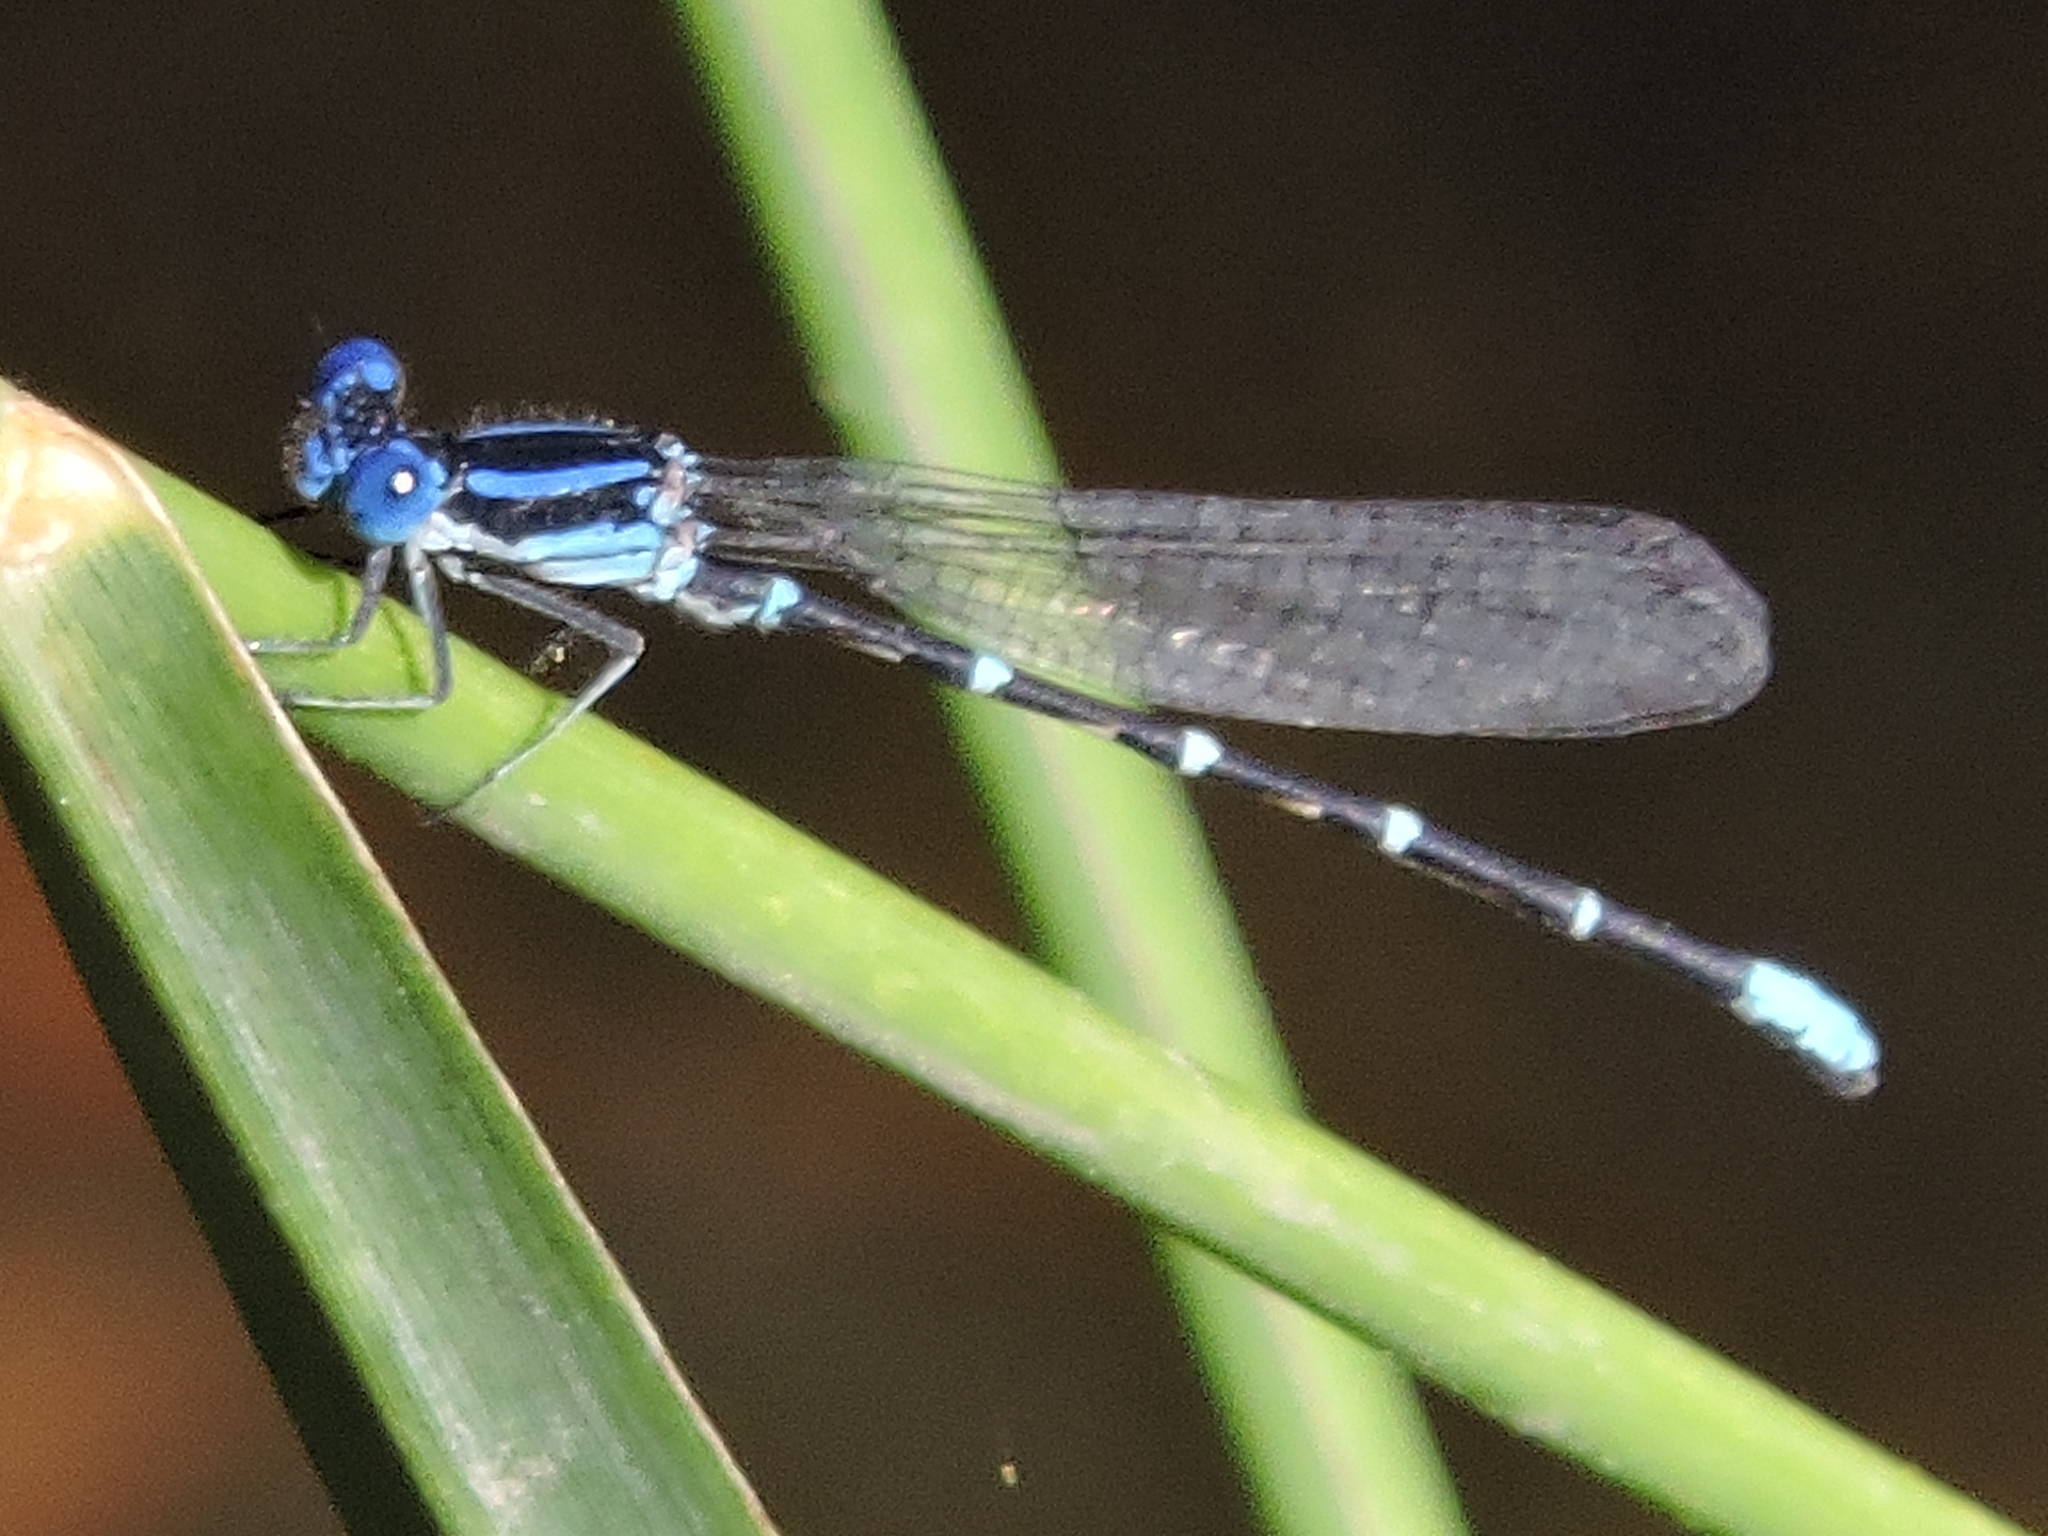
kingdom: Animalia
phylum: Arthropoda
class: Insecta
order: Odonata
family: Coenagrionidae
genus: Argia
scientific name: Argia sedula
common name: Blue-ringed dancer
